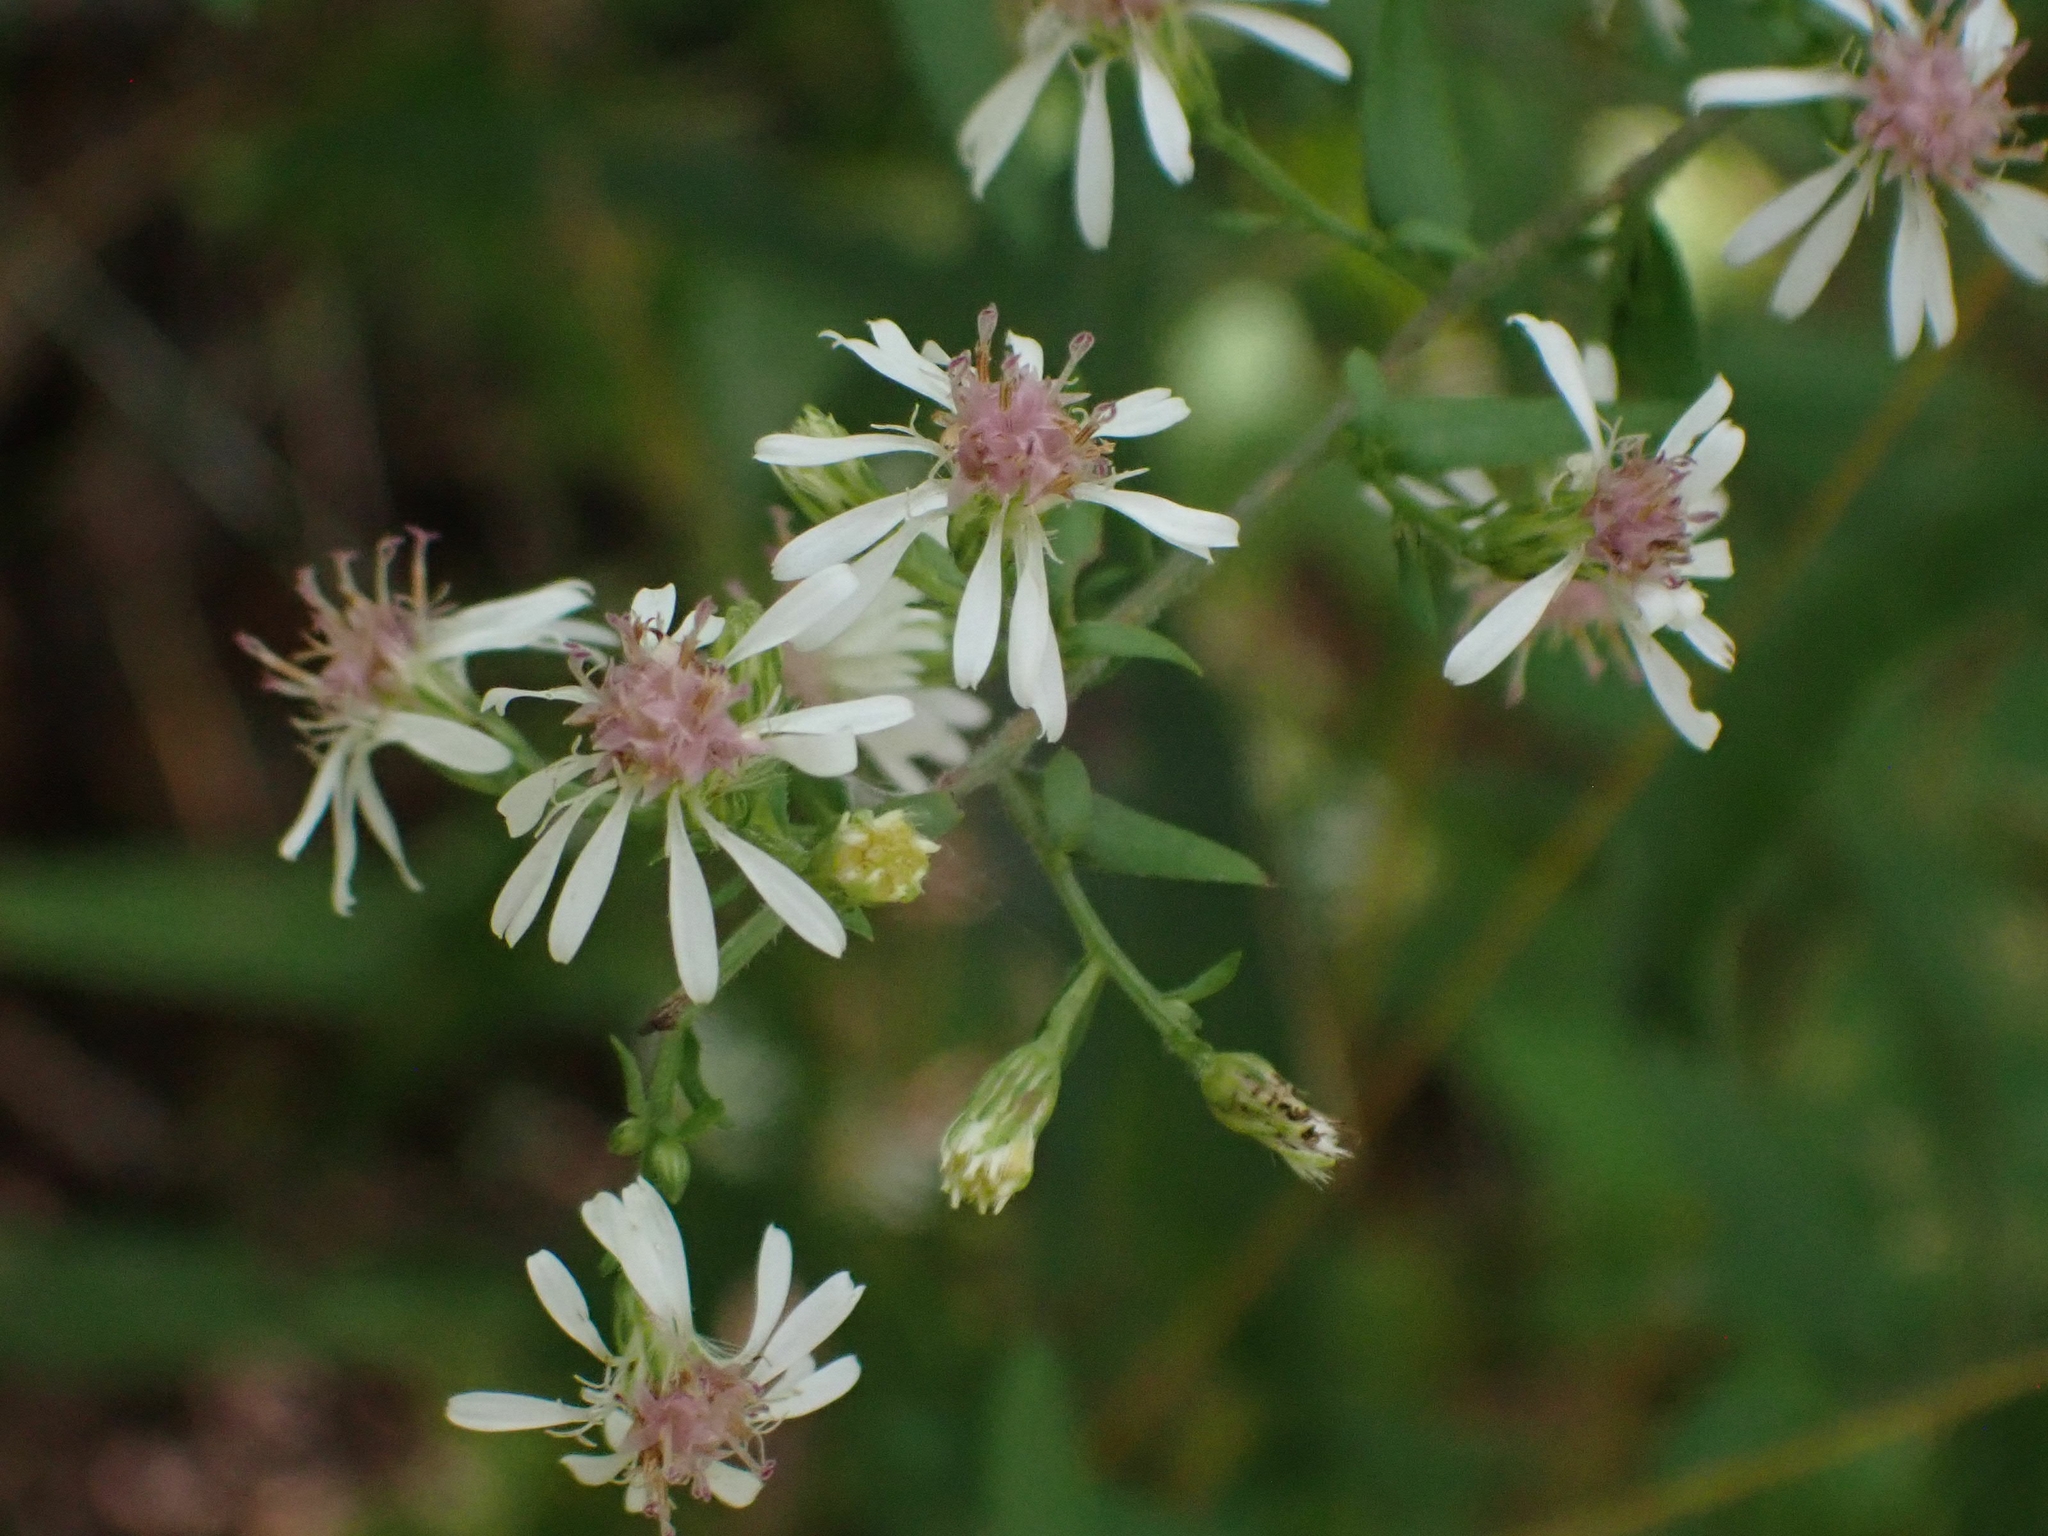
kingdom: Plantae
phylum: Tracheophyta
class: Magnoliopsida
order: Asterales
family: Asteraceae
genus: Symphyotrichum
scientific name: Symphyotrichum lateriflorum
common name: Calico aster
